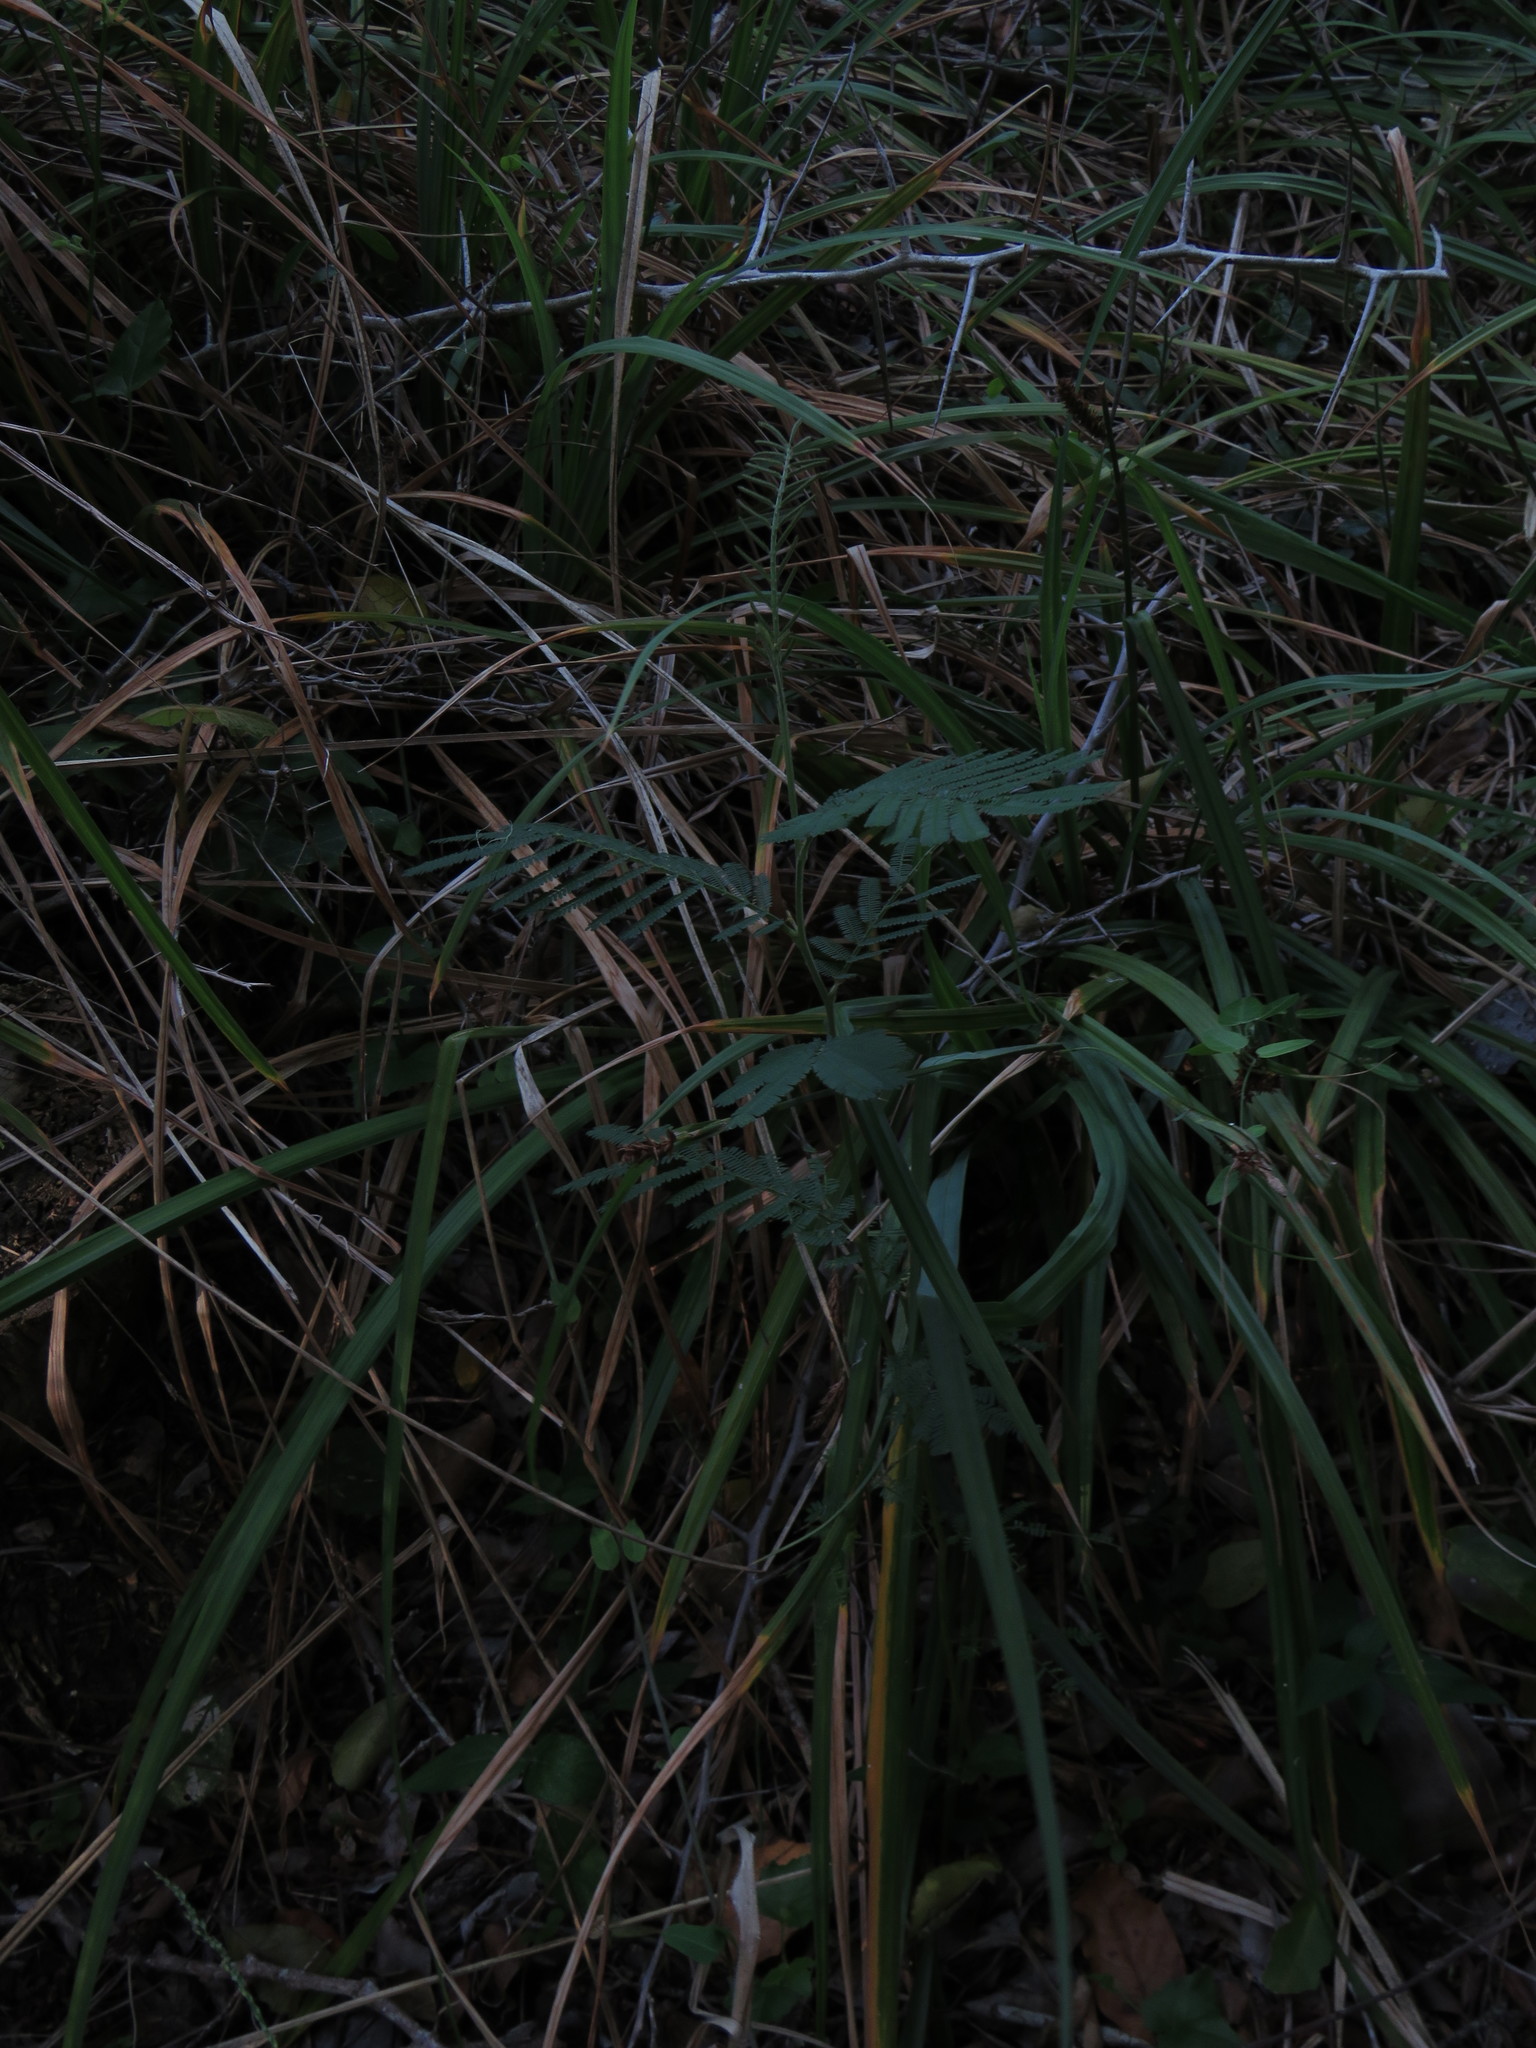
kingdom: Plantae
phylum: Tracheophyta
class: Magnoliopsida
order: Fabales
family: Fabaceae
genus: Acacia
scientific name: Acacia mearnsii
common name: Black wattle
